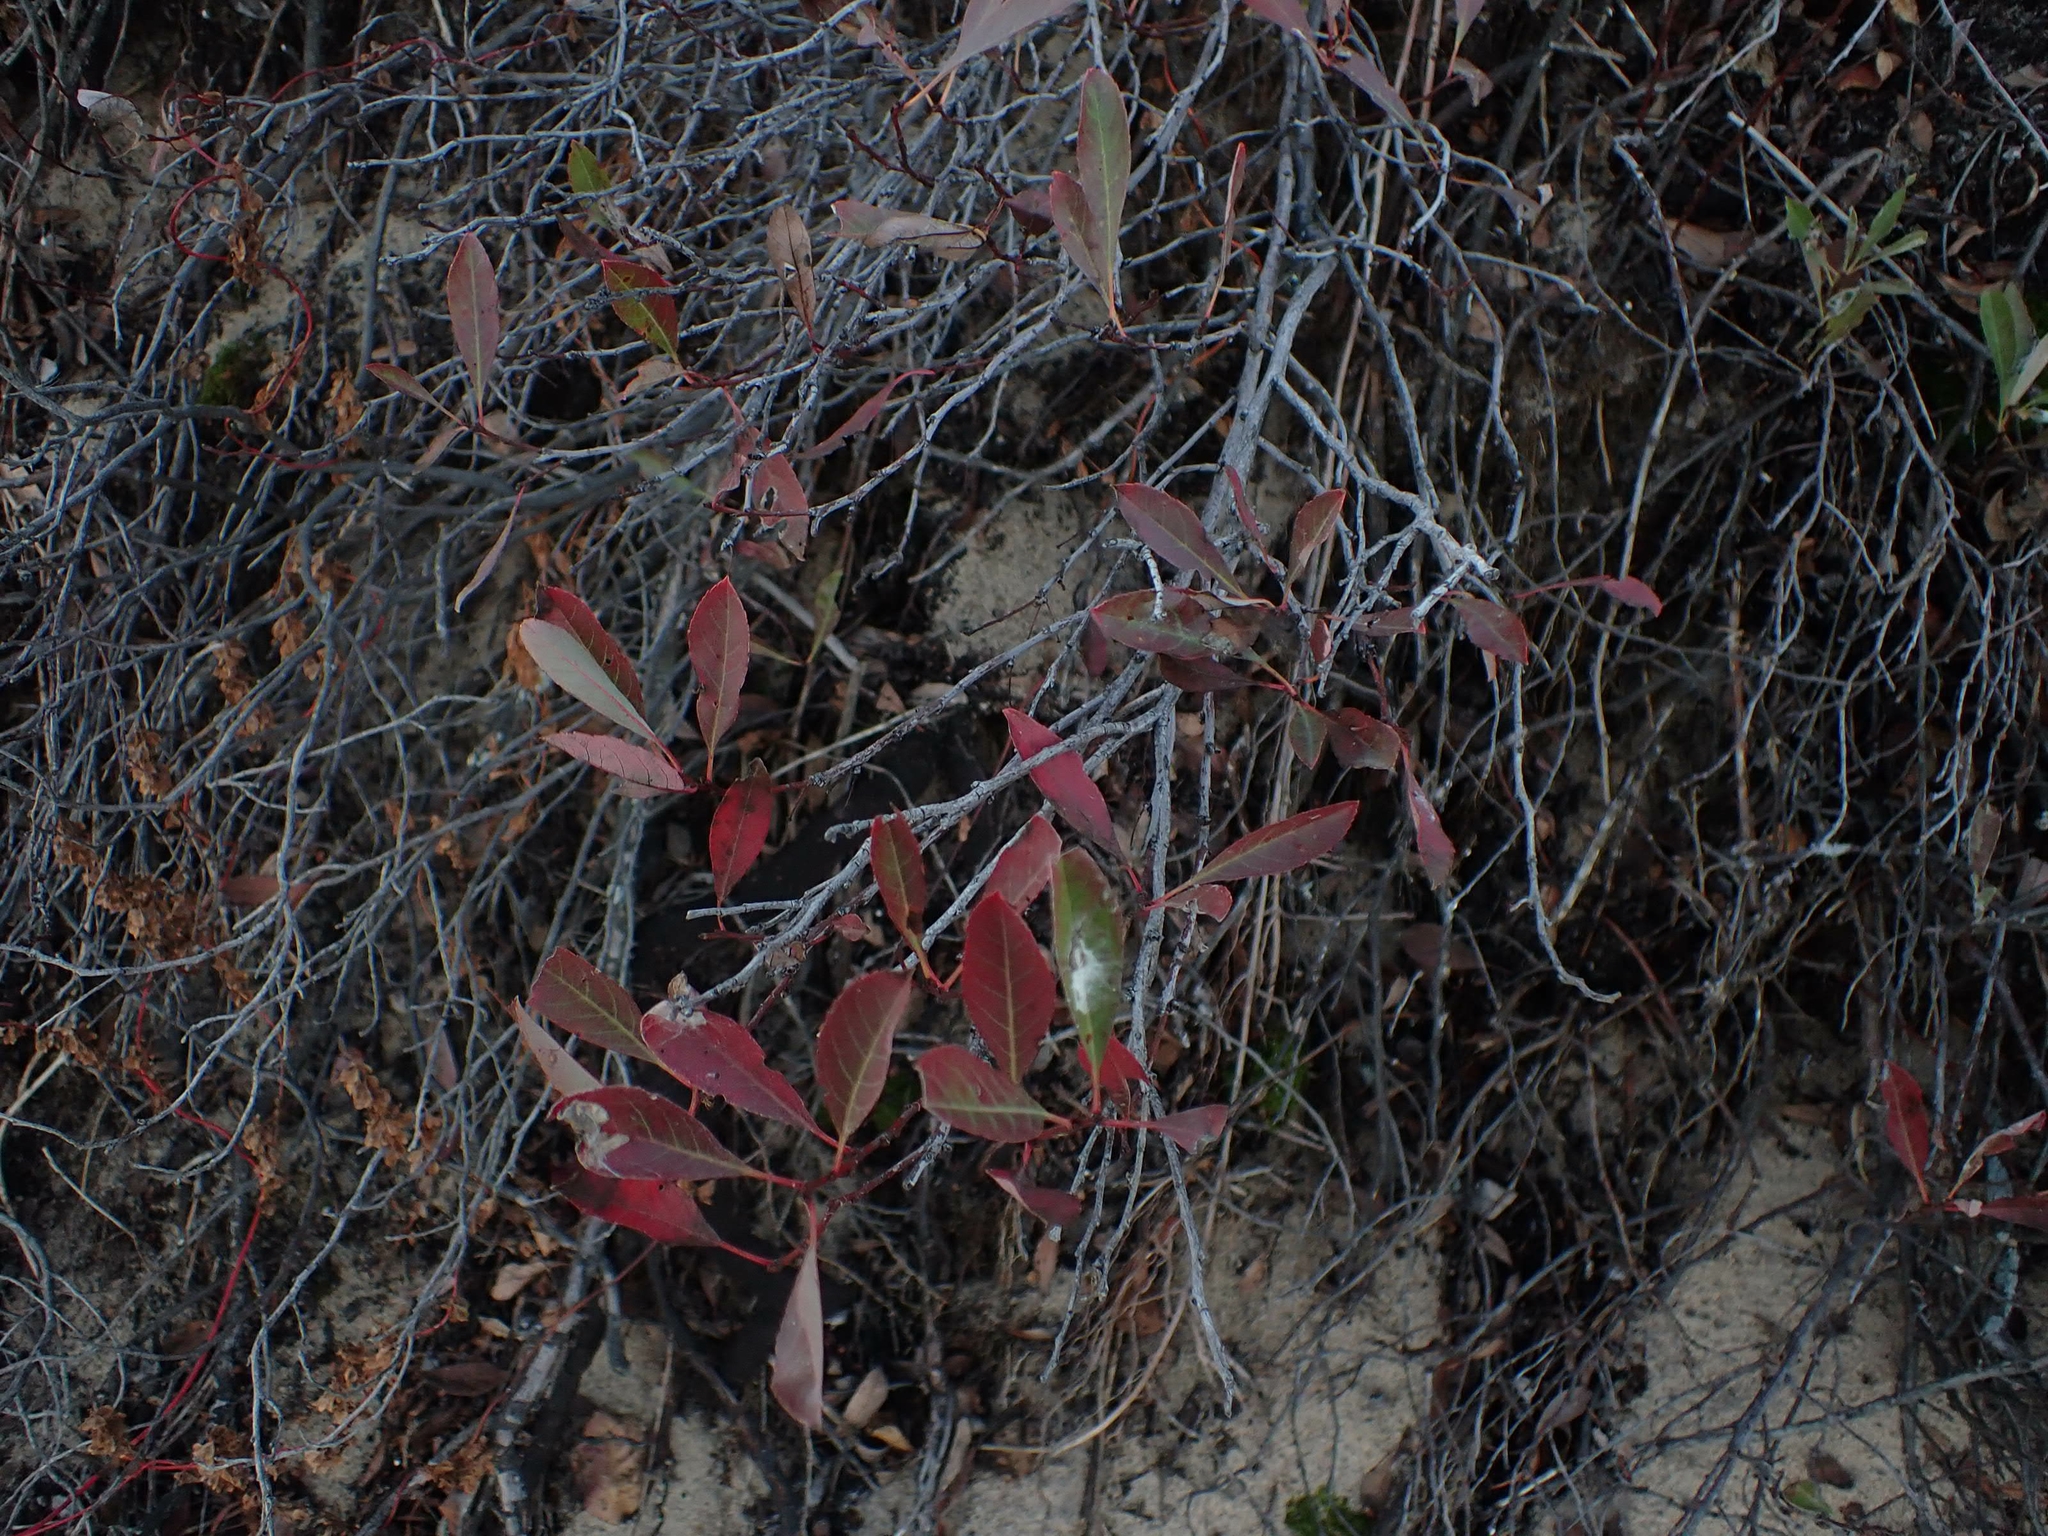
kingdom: Plantae
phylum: Tracheophyta
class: Magnoliopsida
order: Rosales
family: Rosaceae
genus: Prunus
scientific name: Prunus pumila
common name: Dwarf cherry
